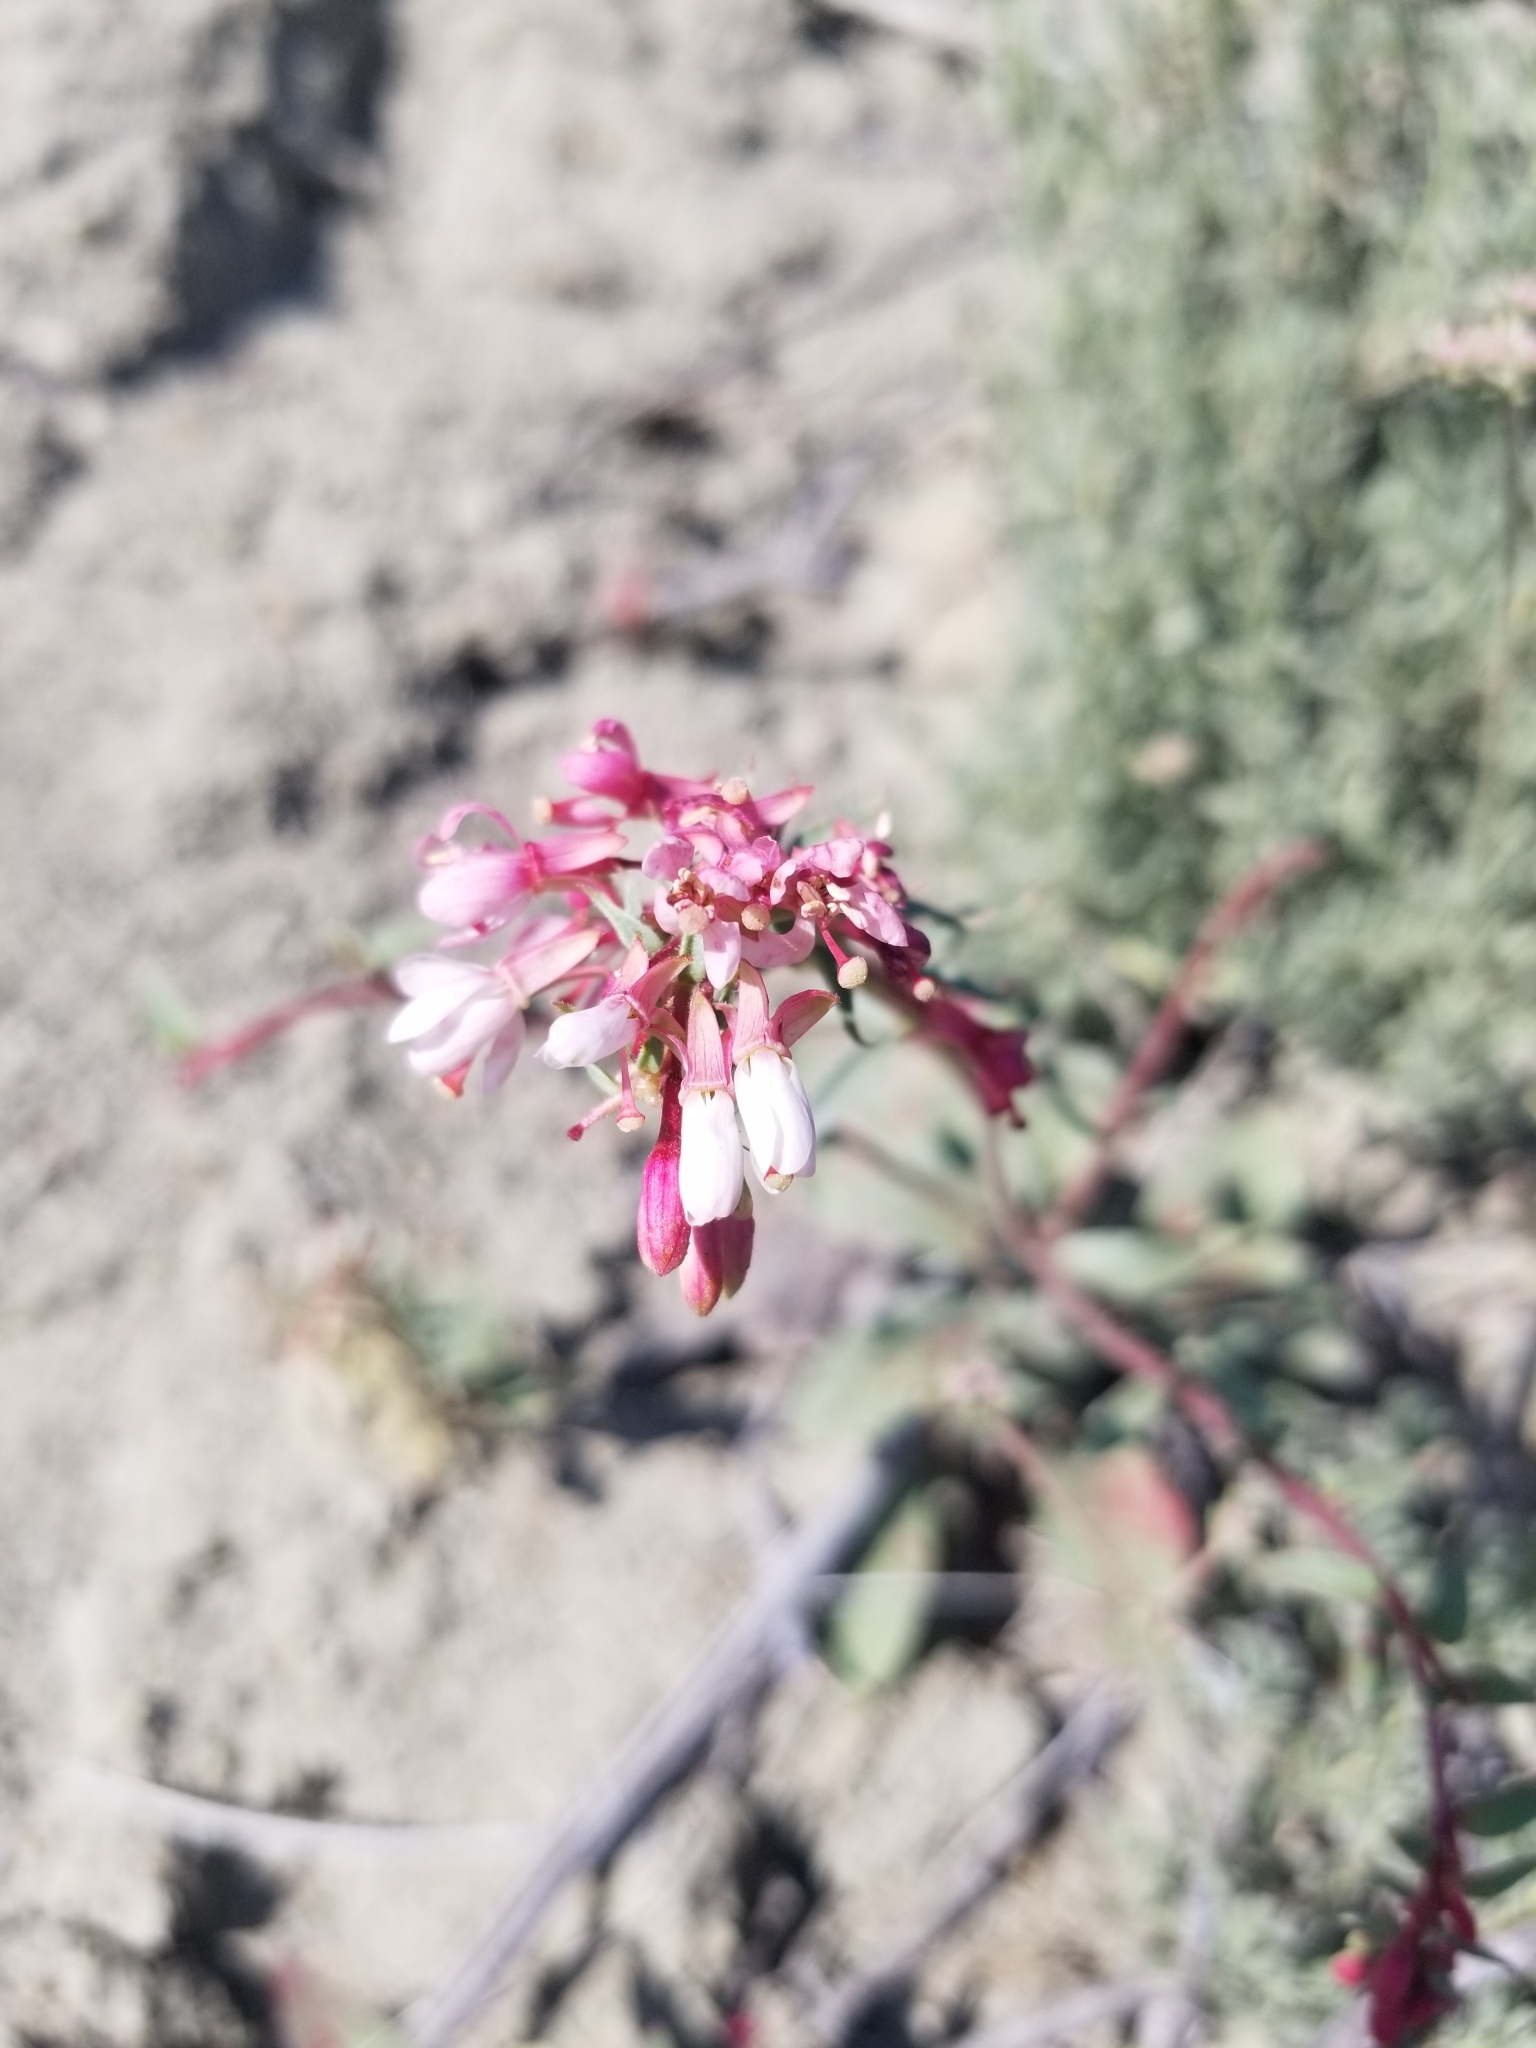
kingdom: Plantae
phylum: Tracheophyta
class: Magnoliopsida
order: Myrtales
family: Onagraceae
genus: Eremothera
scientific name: Eremothera boothii
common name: Booth's evening primrose
